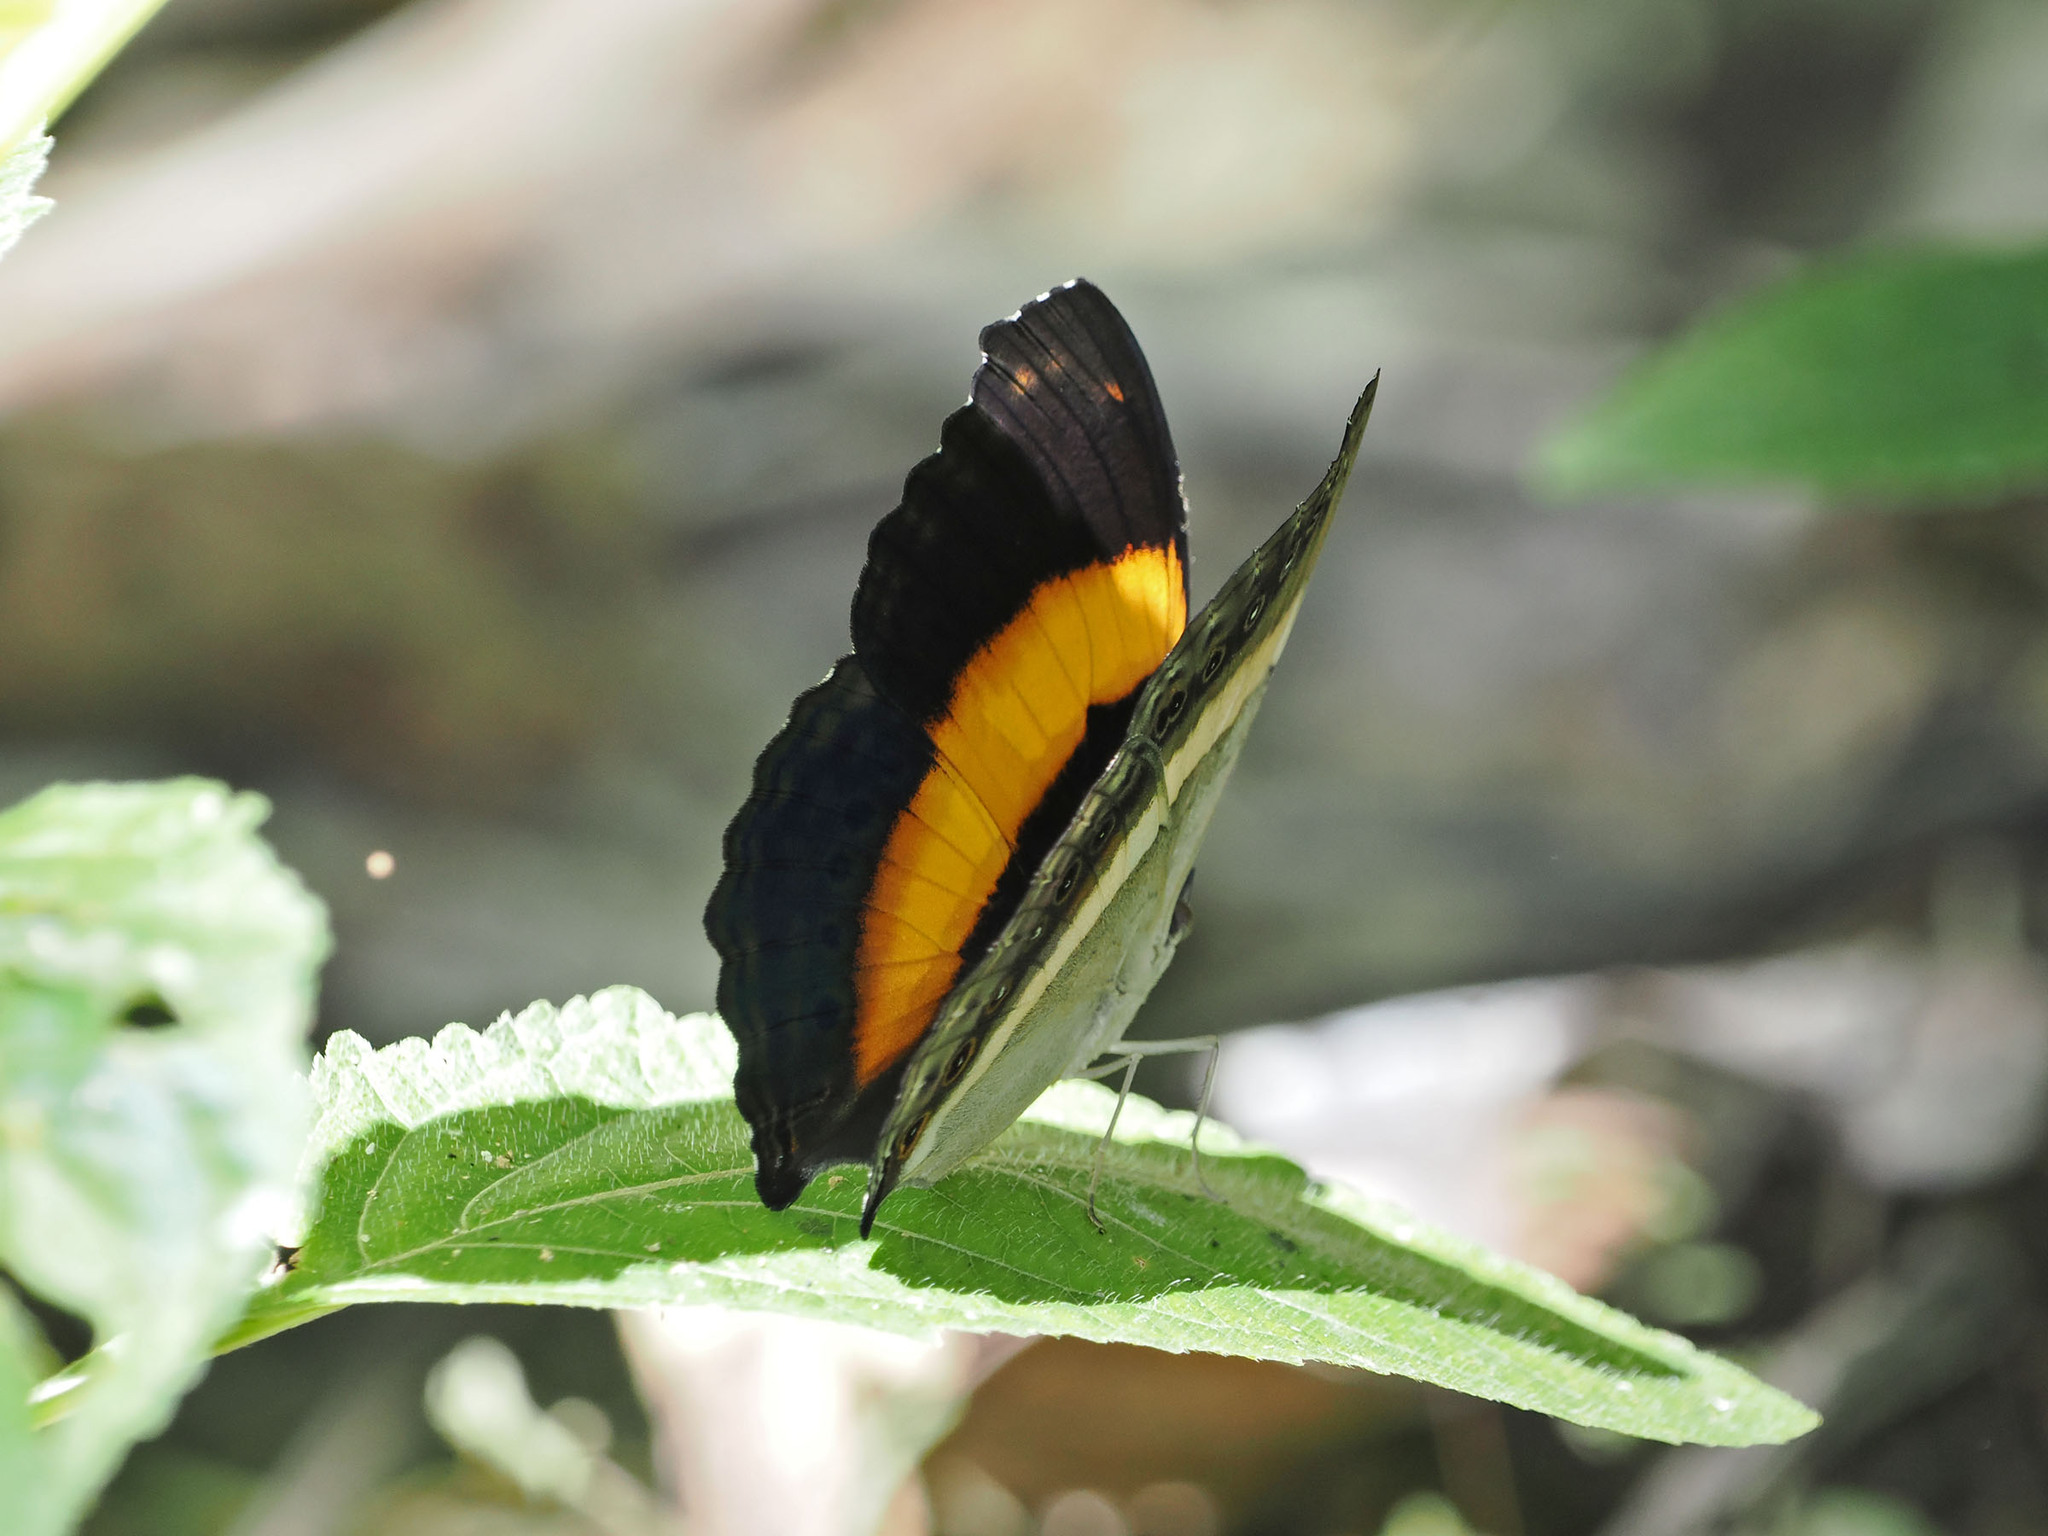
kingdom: Animalia
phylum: Arthropoda
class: Insecta
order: Lepidoptera
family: Nymphalidae
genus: Yoma
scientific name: Yoma algina
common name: New guinea lurcher
